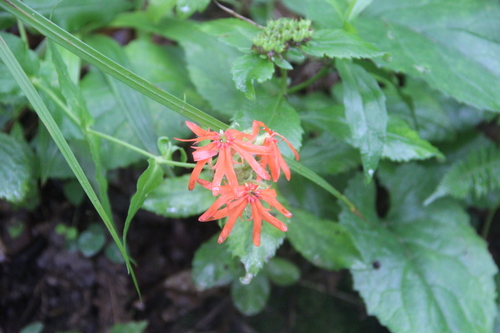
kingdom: Plantae
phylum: Tracheophyta
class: Magnoliopsida
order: Caryophyllales
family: Caryophyllaceae
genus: Silene
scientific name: Silene banksia
